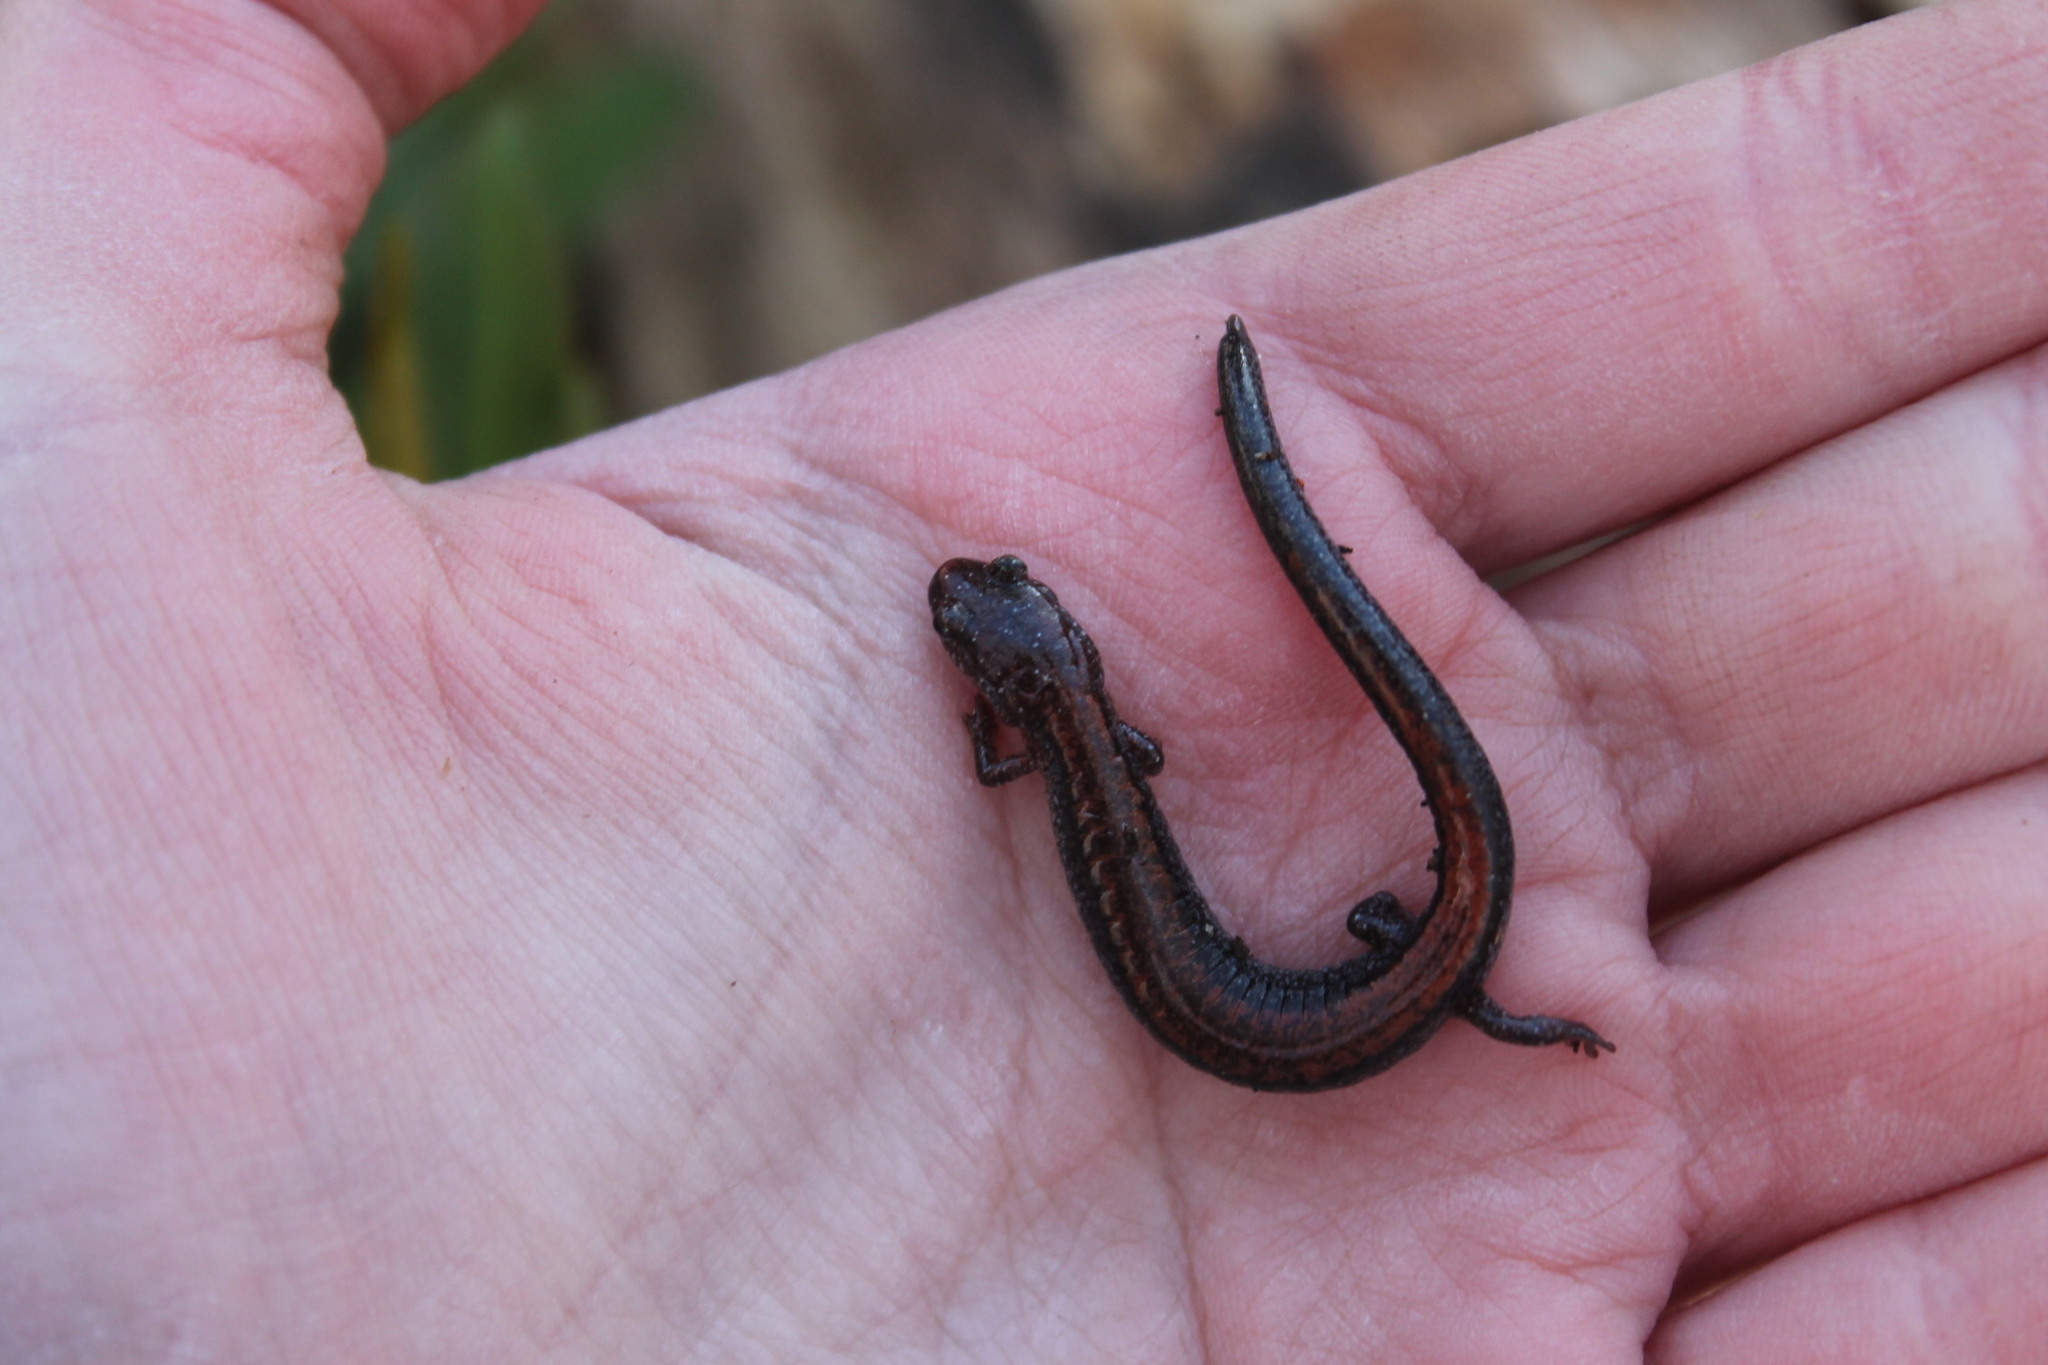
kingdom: Animalia
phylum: Chordata
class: Amphibia
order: Caudata
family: Plethodontidae
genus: Plethodon
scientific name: Plethodon cinereus
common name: Redback salamander
